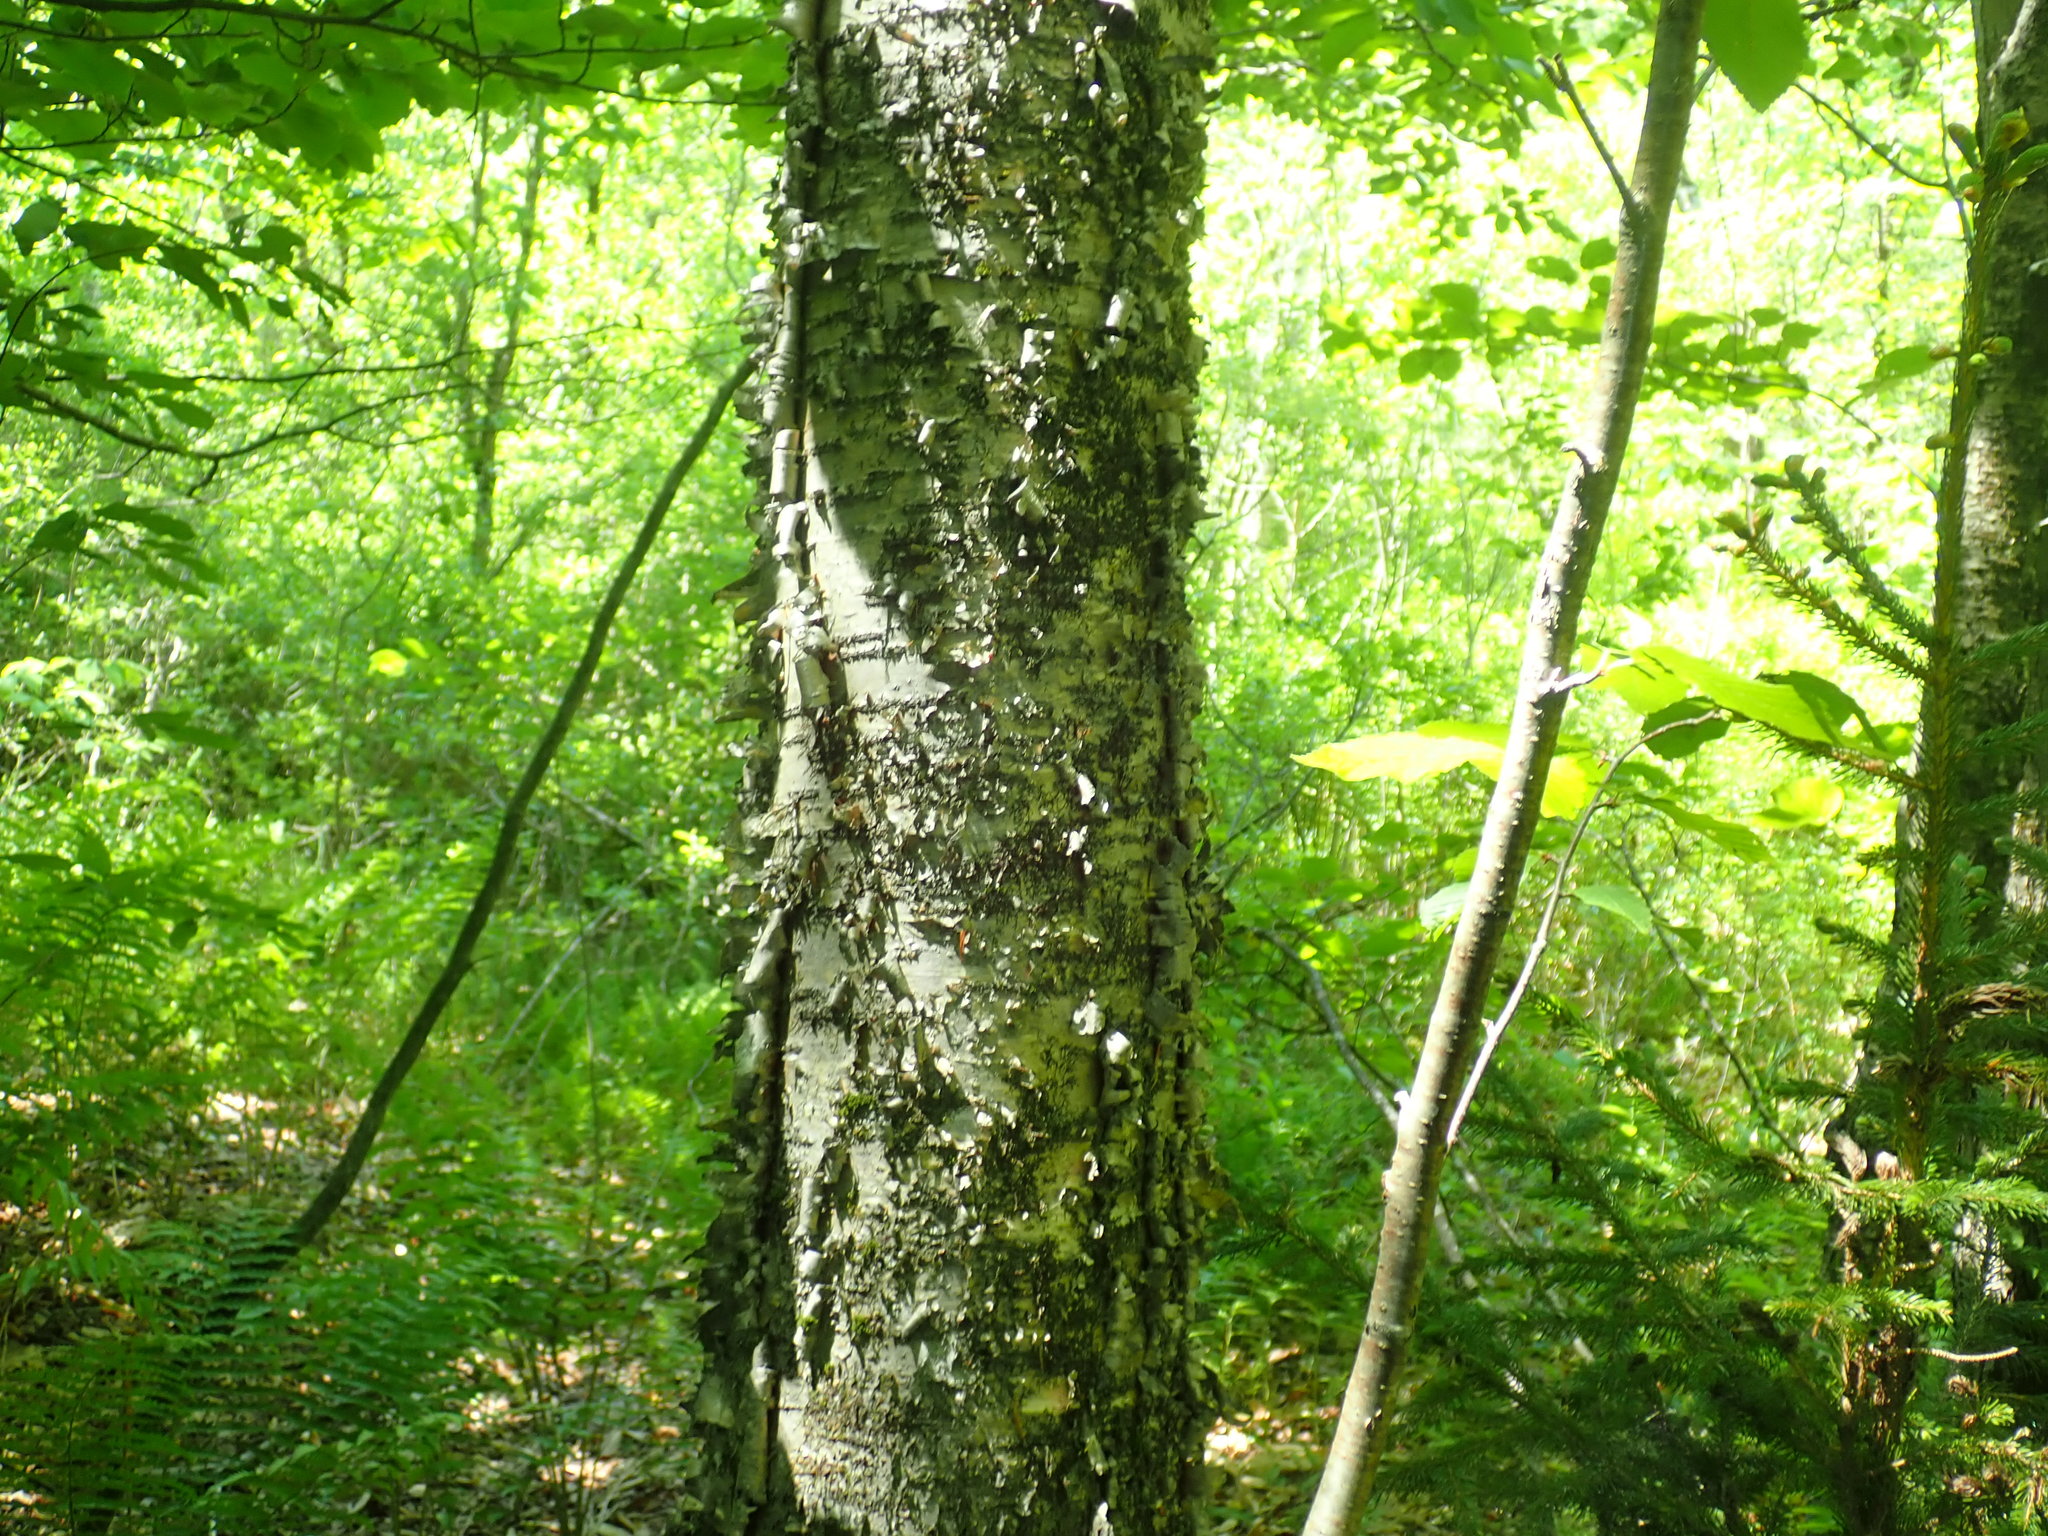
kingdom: Plantae
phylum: Tracheophyta
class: Magnoliopsida
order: Fagales
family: Betulaceae
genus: Betula
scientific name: Betula alleghaniensis
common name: Yellow birch
